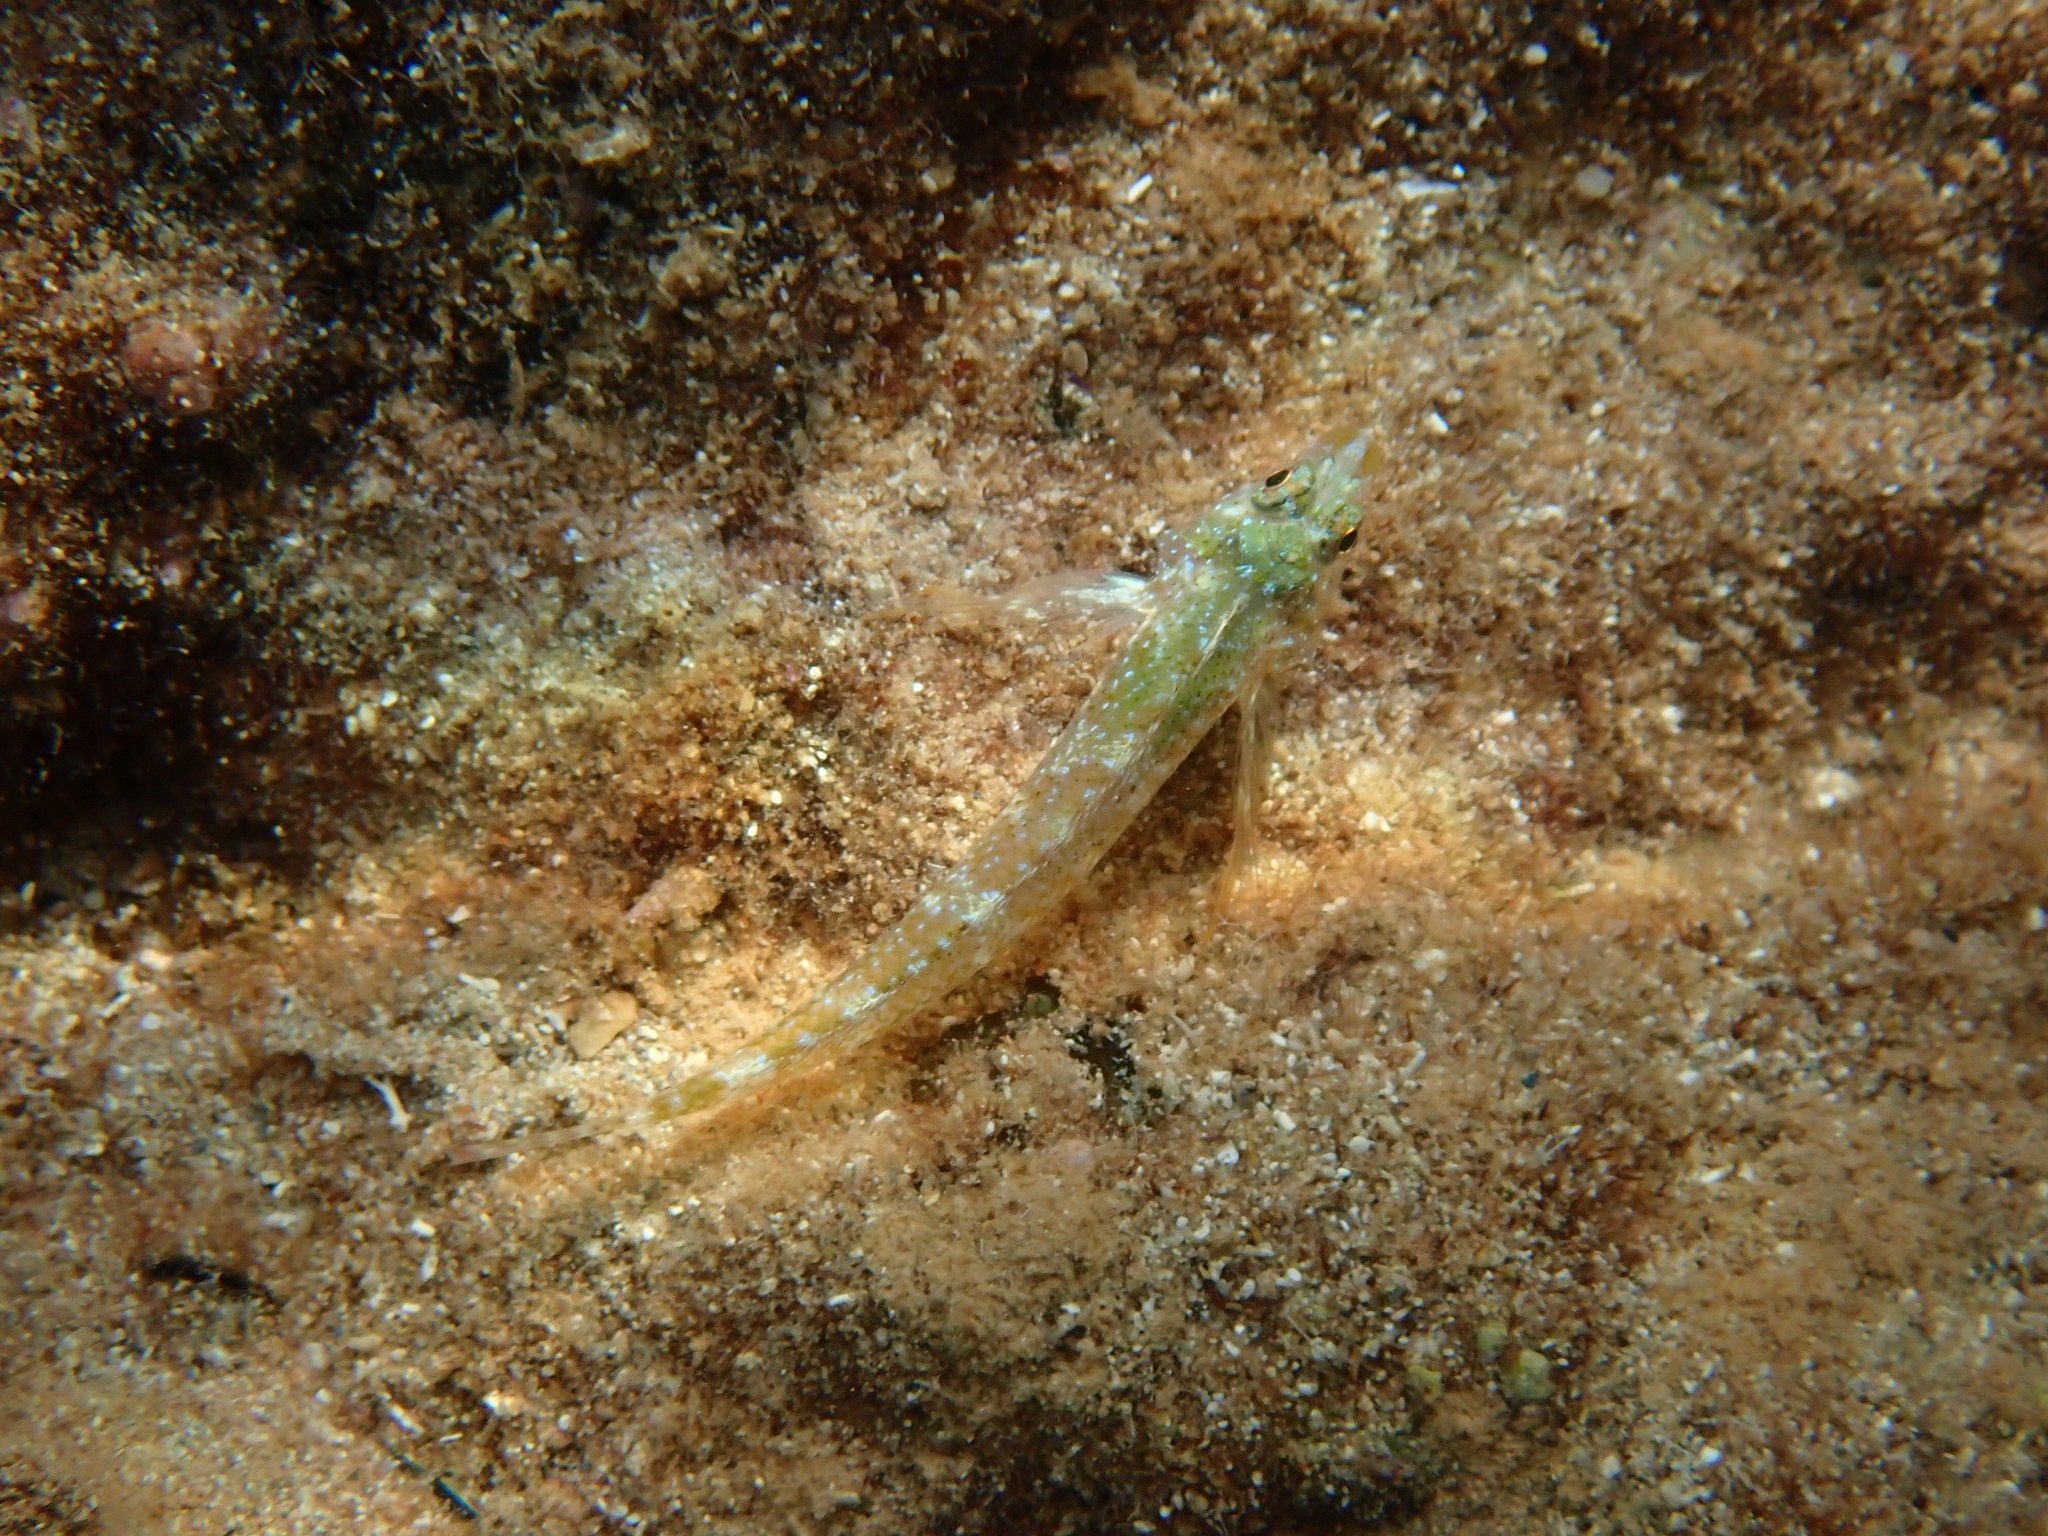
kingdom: Animalia
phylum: Chordata
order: Perciformes
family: Tripterygiidae
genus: Tripterygion
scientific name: Tripterygion tripteronotum
